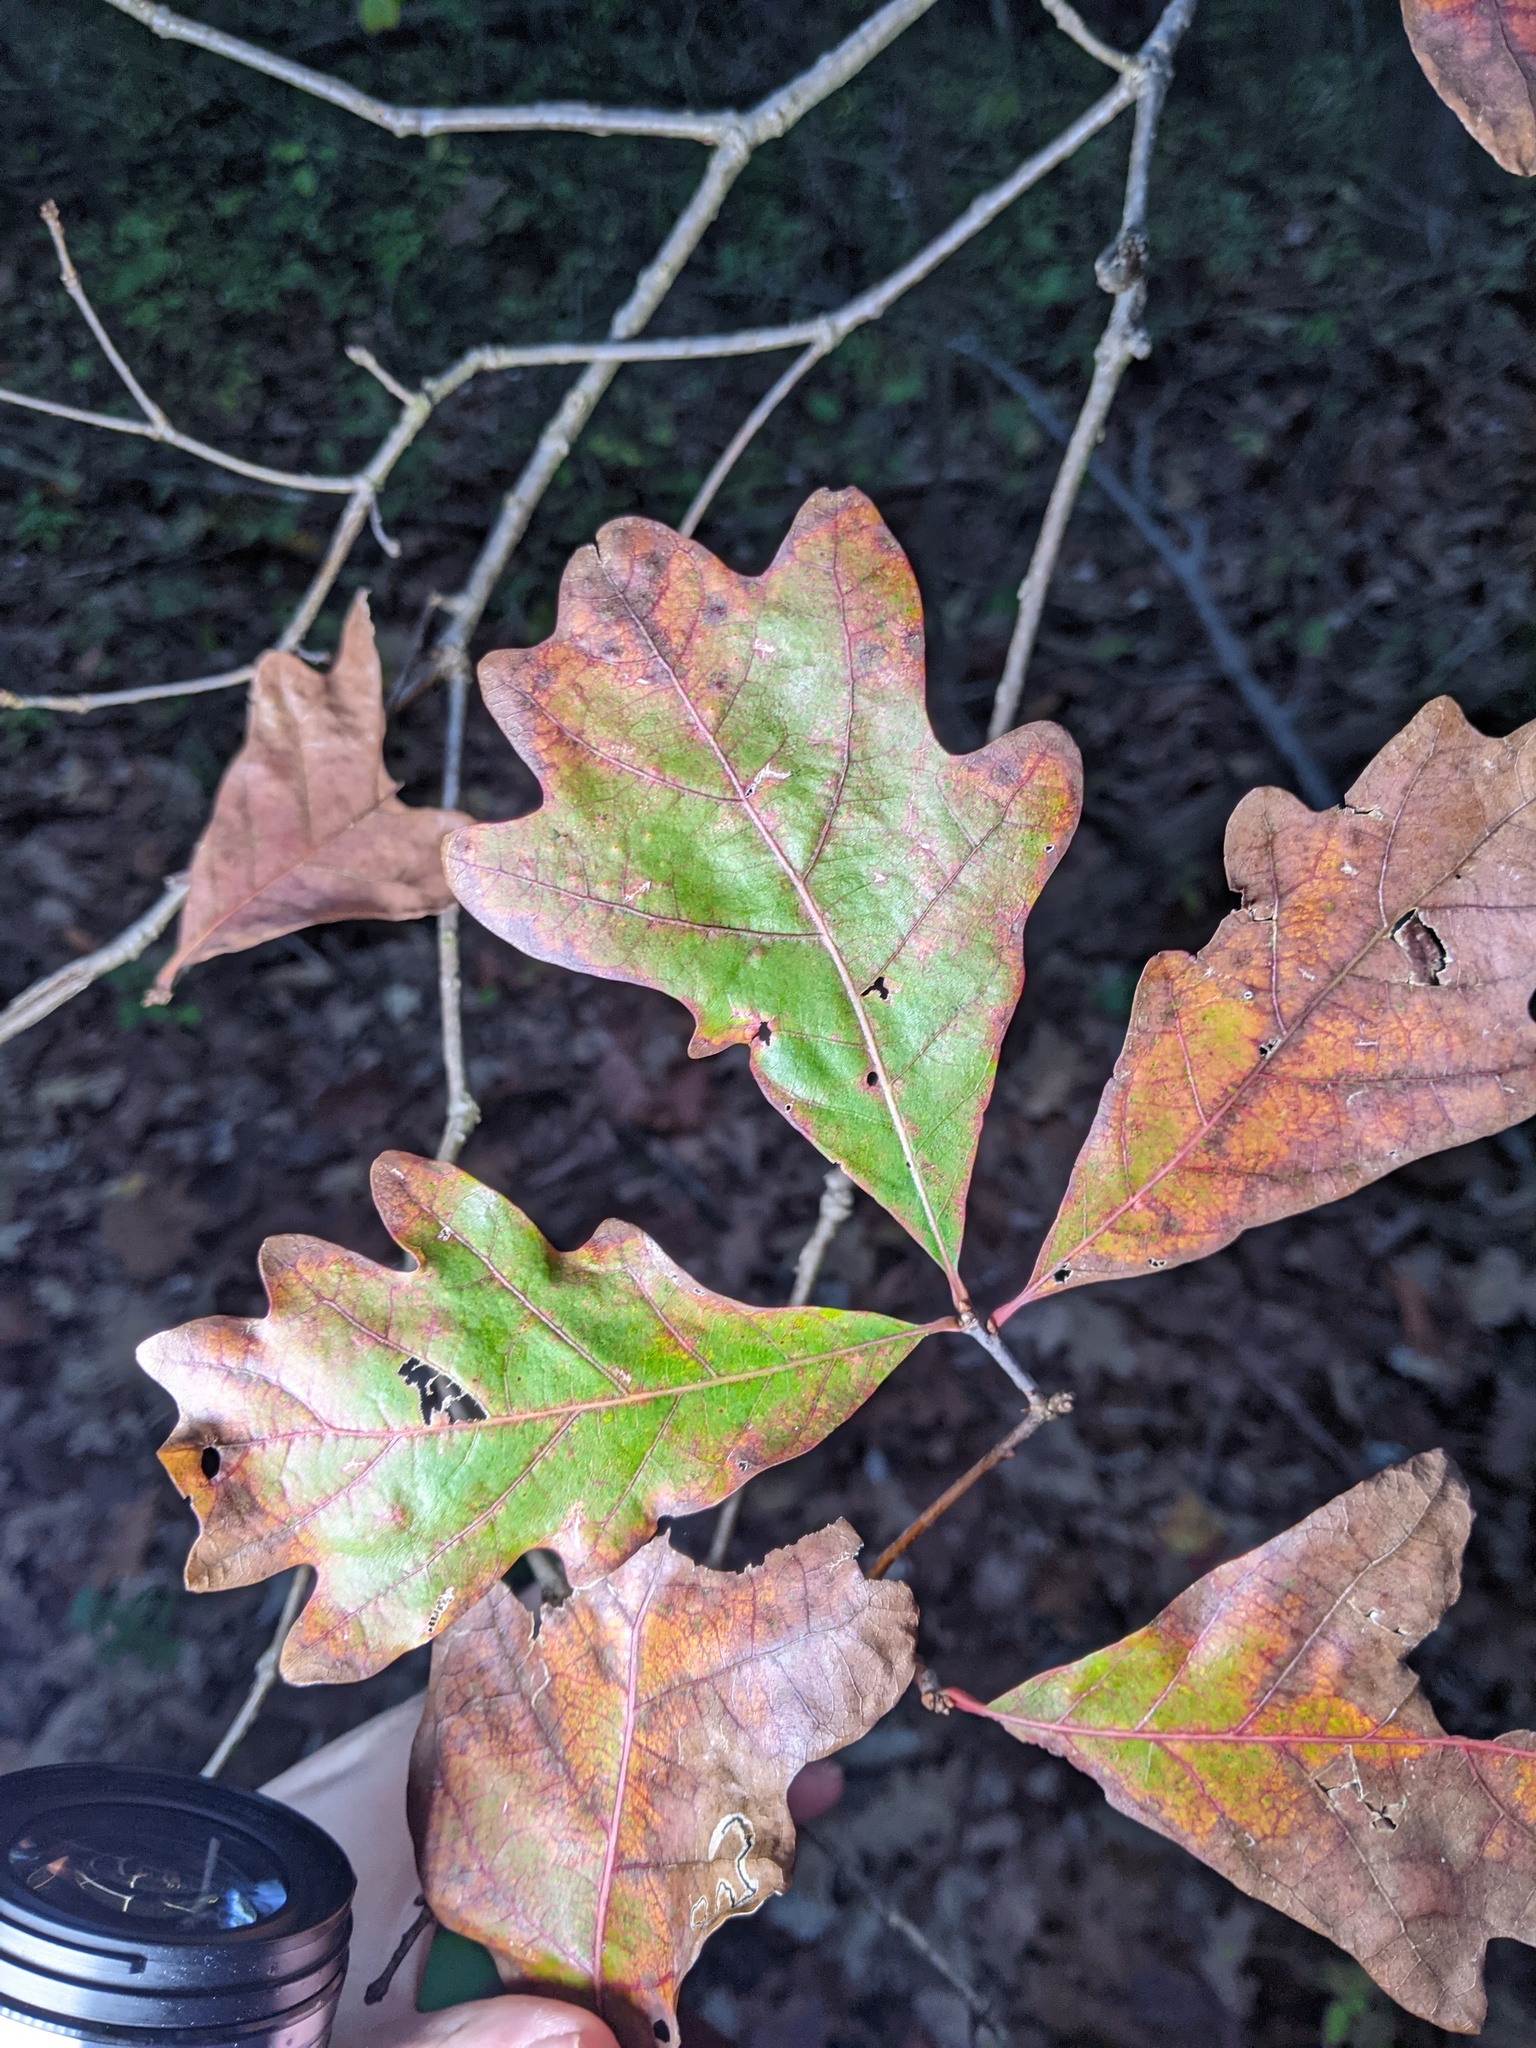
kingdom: Plantae
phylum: Tracheophyta
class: Magnoliopsida
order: Fagales
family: Fagaceae
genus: Quercus
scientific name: Quercus alba
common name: White oak
